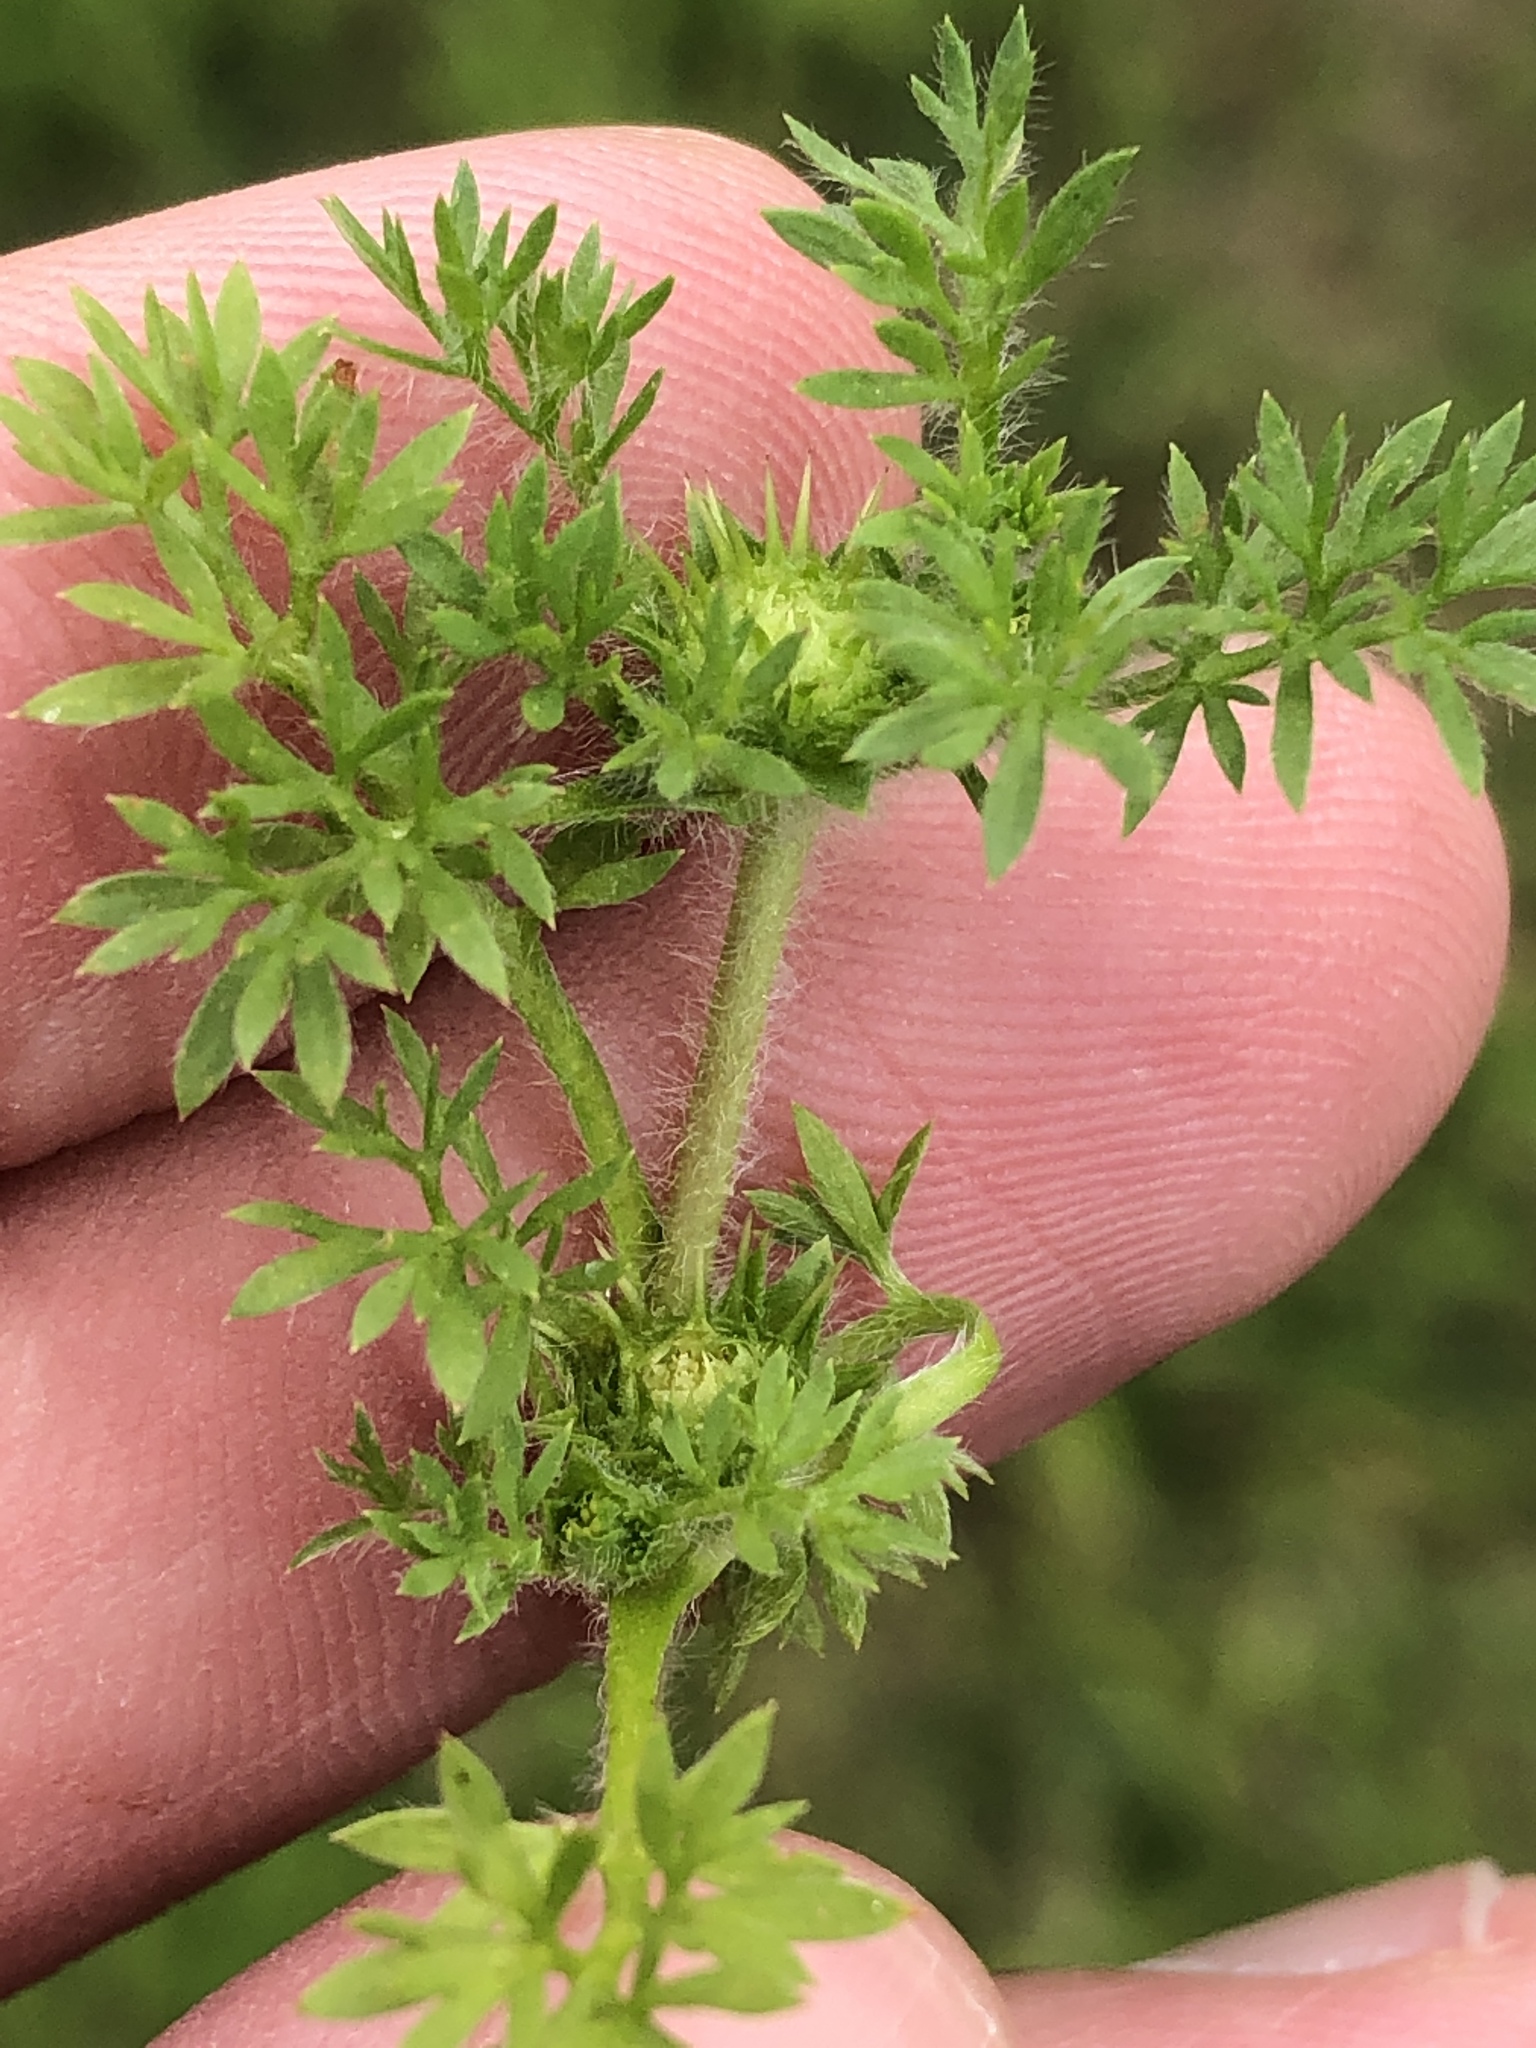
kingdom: Plantae
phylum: Tracheophyta
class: Magnoliopsida
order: Asterales
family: Asteraceae
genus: Soliva
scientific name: Soliva sessilis
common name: Field burrweed
